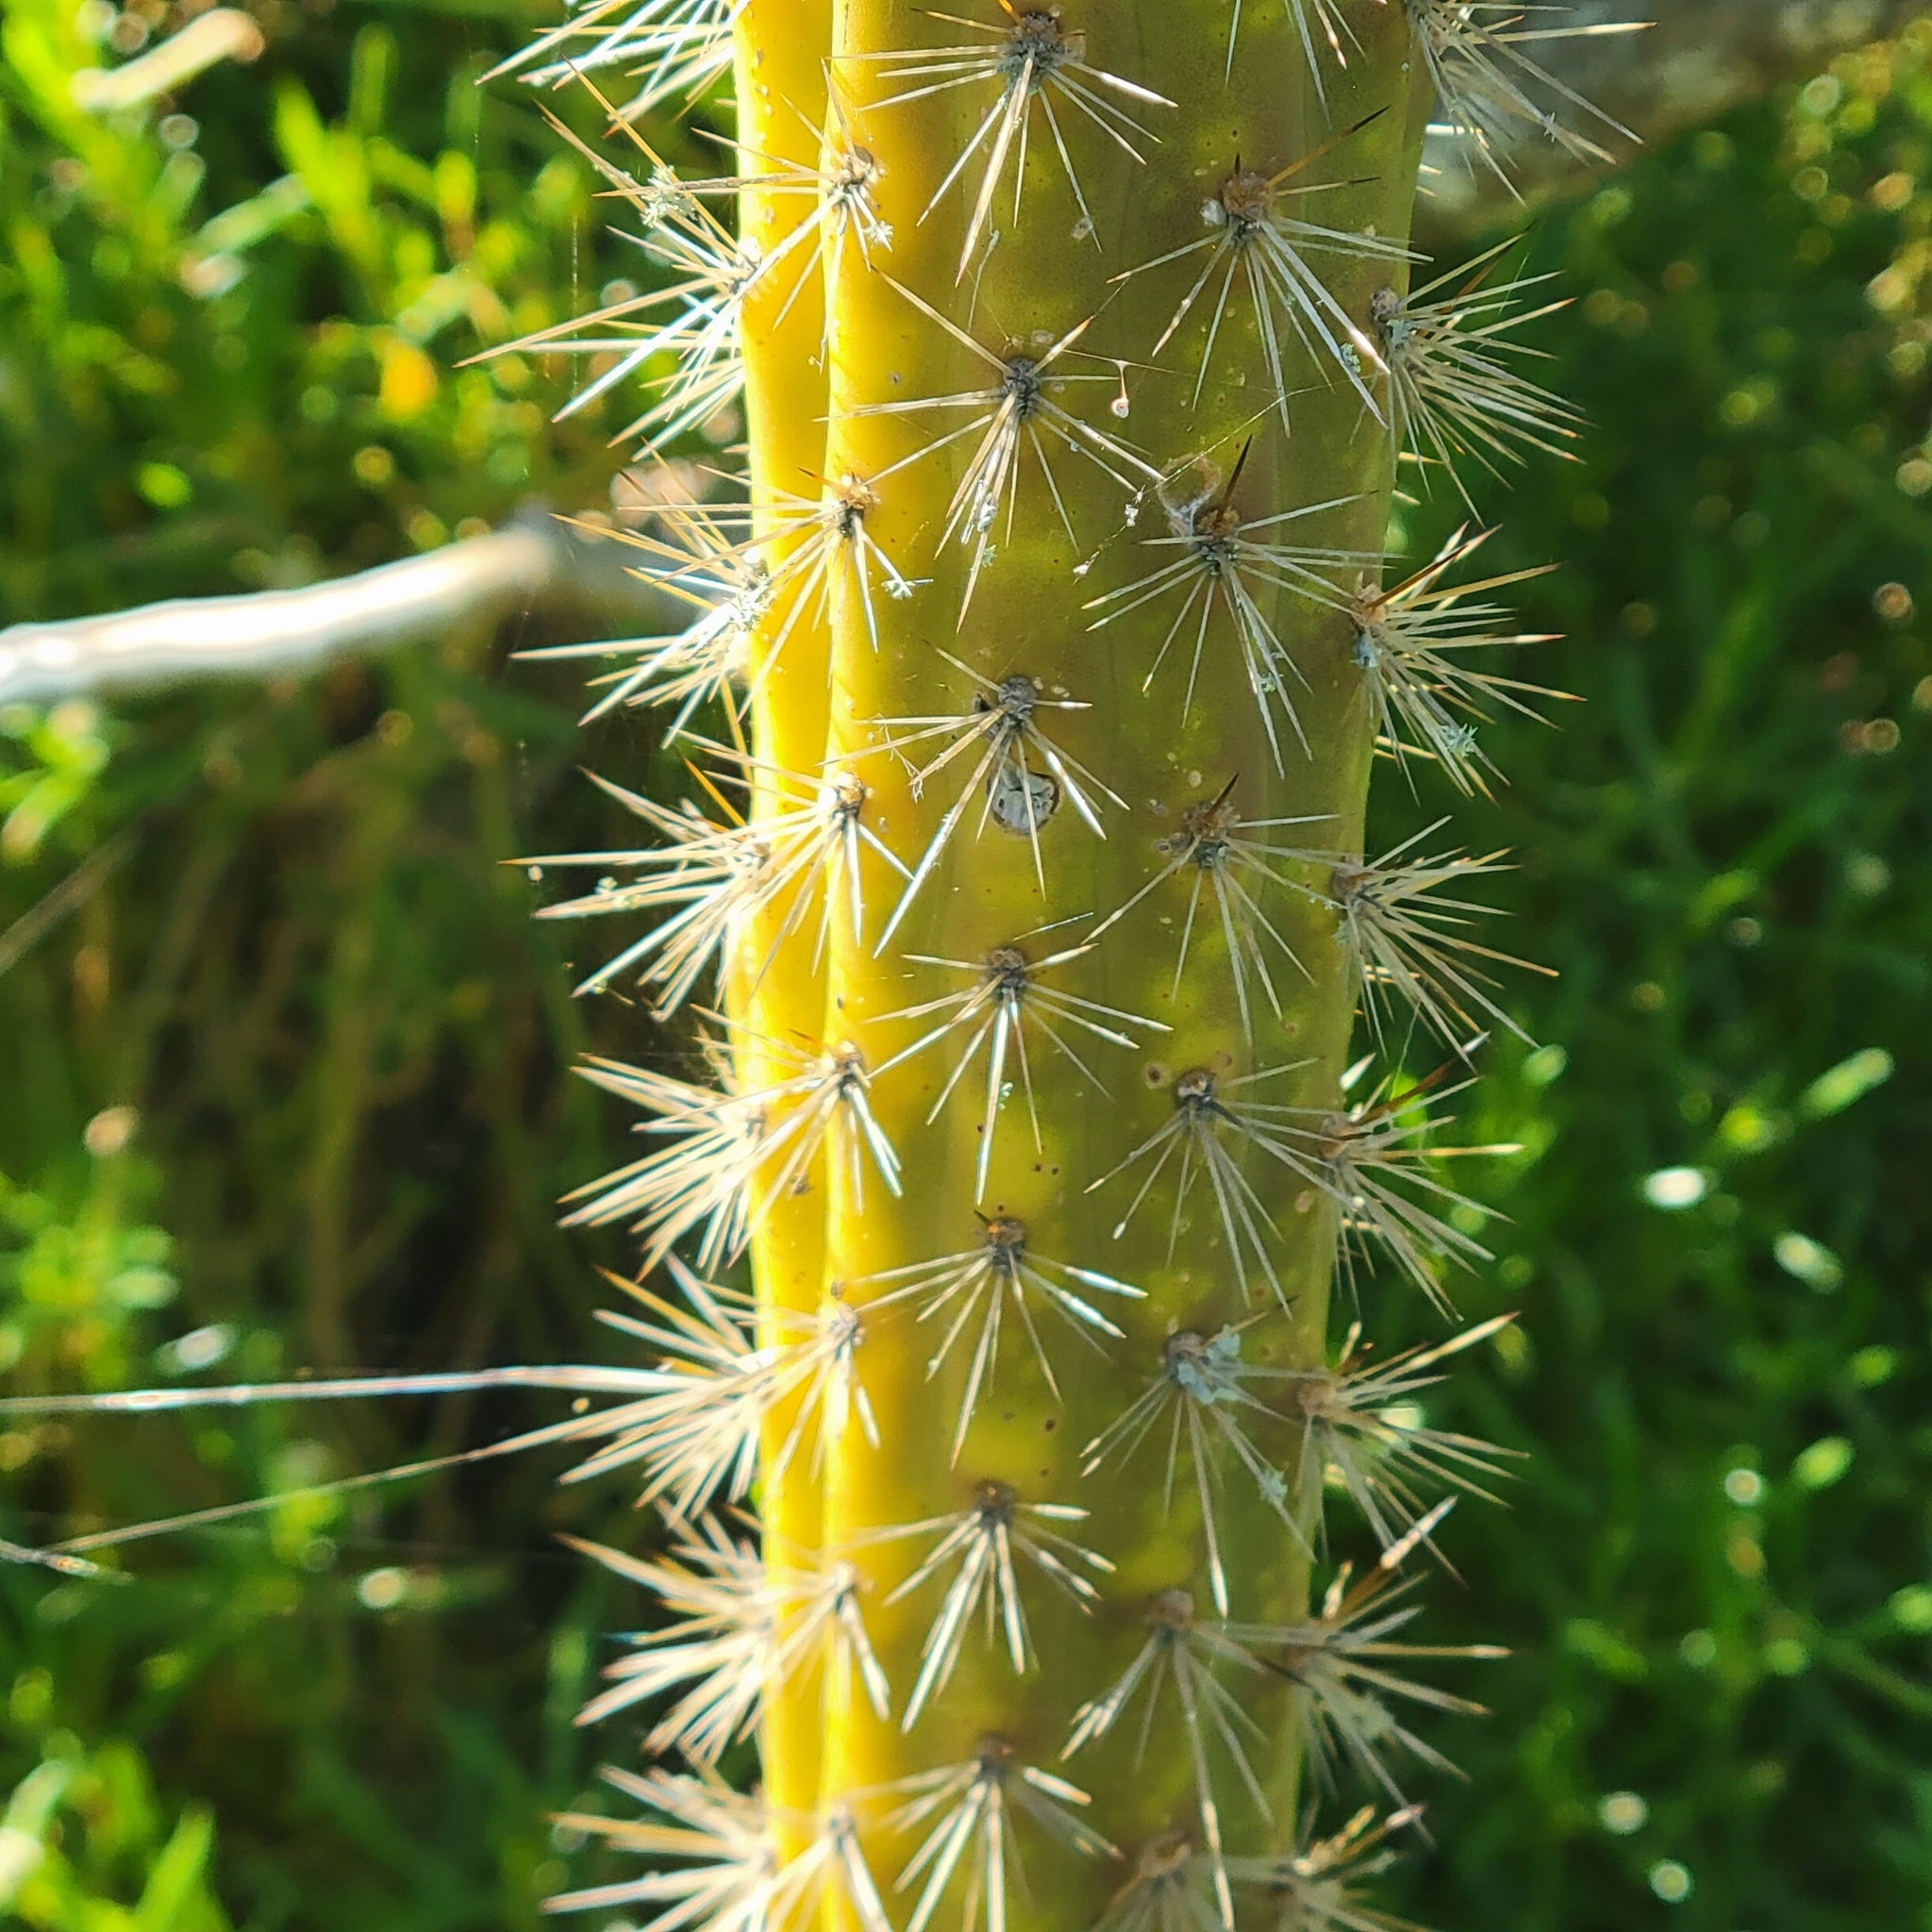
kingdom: Plantae
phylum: Tracheophyta
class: Magnoliopsida
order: Caryophyllales
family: Cactaceae
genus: Harrisia
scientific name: Harrisia fragrans
